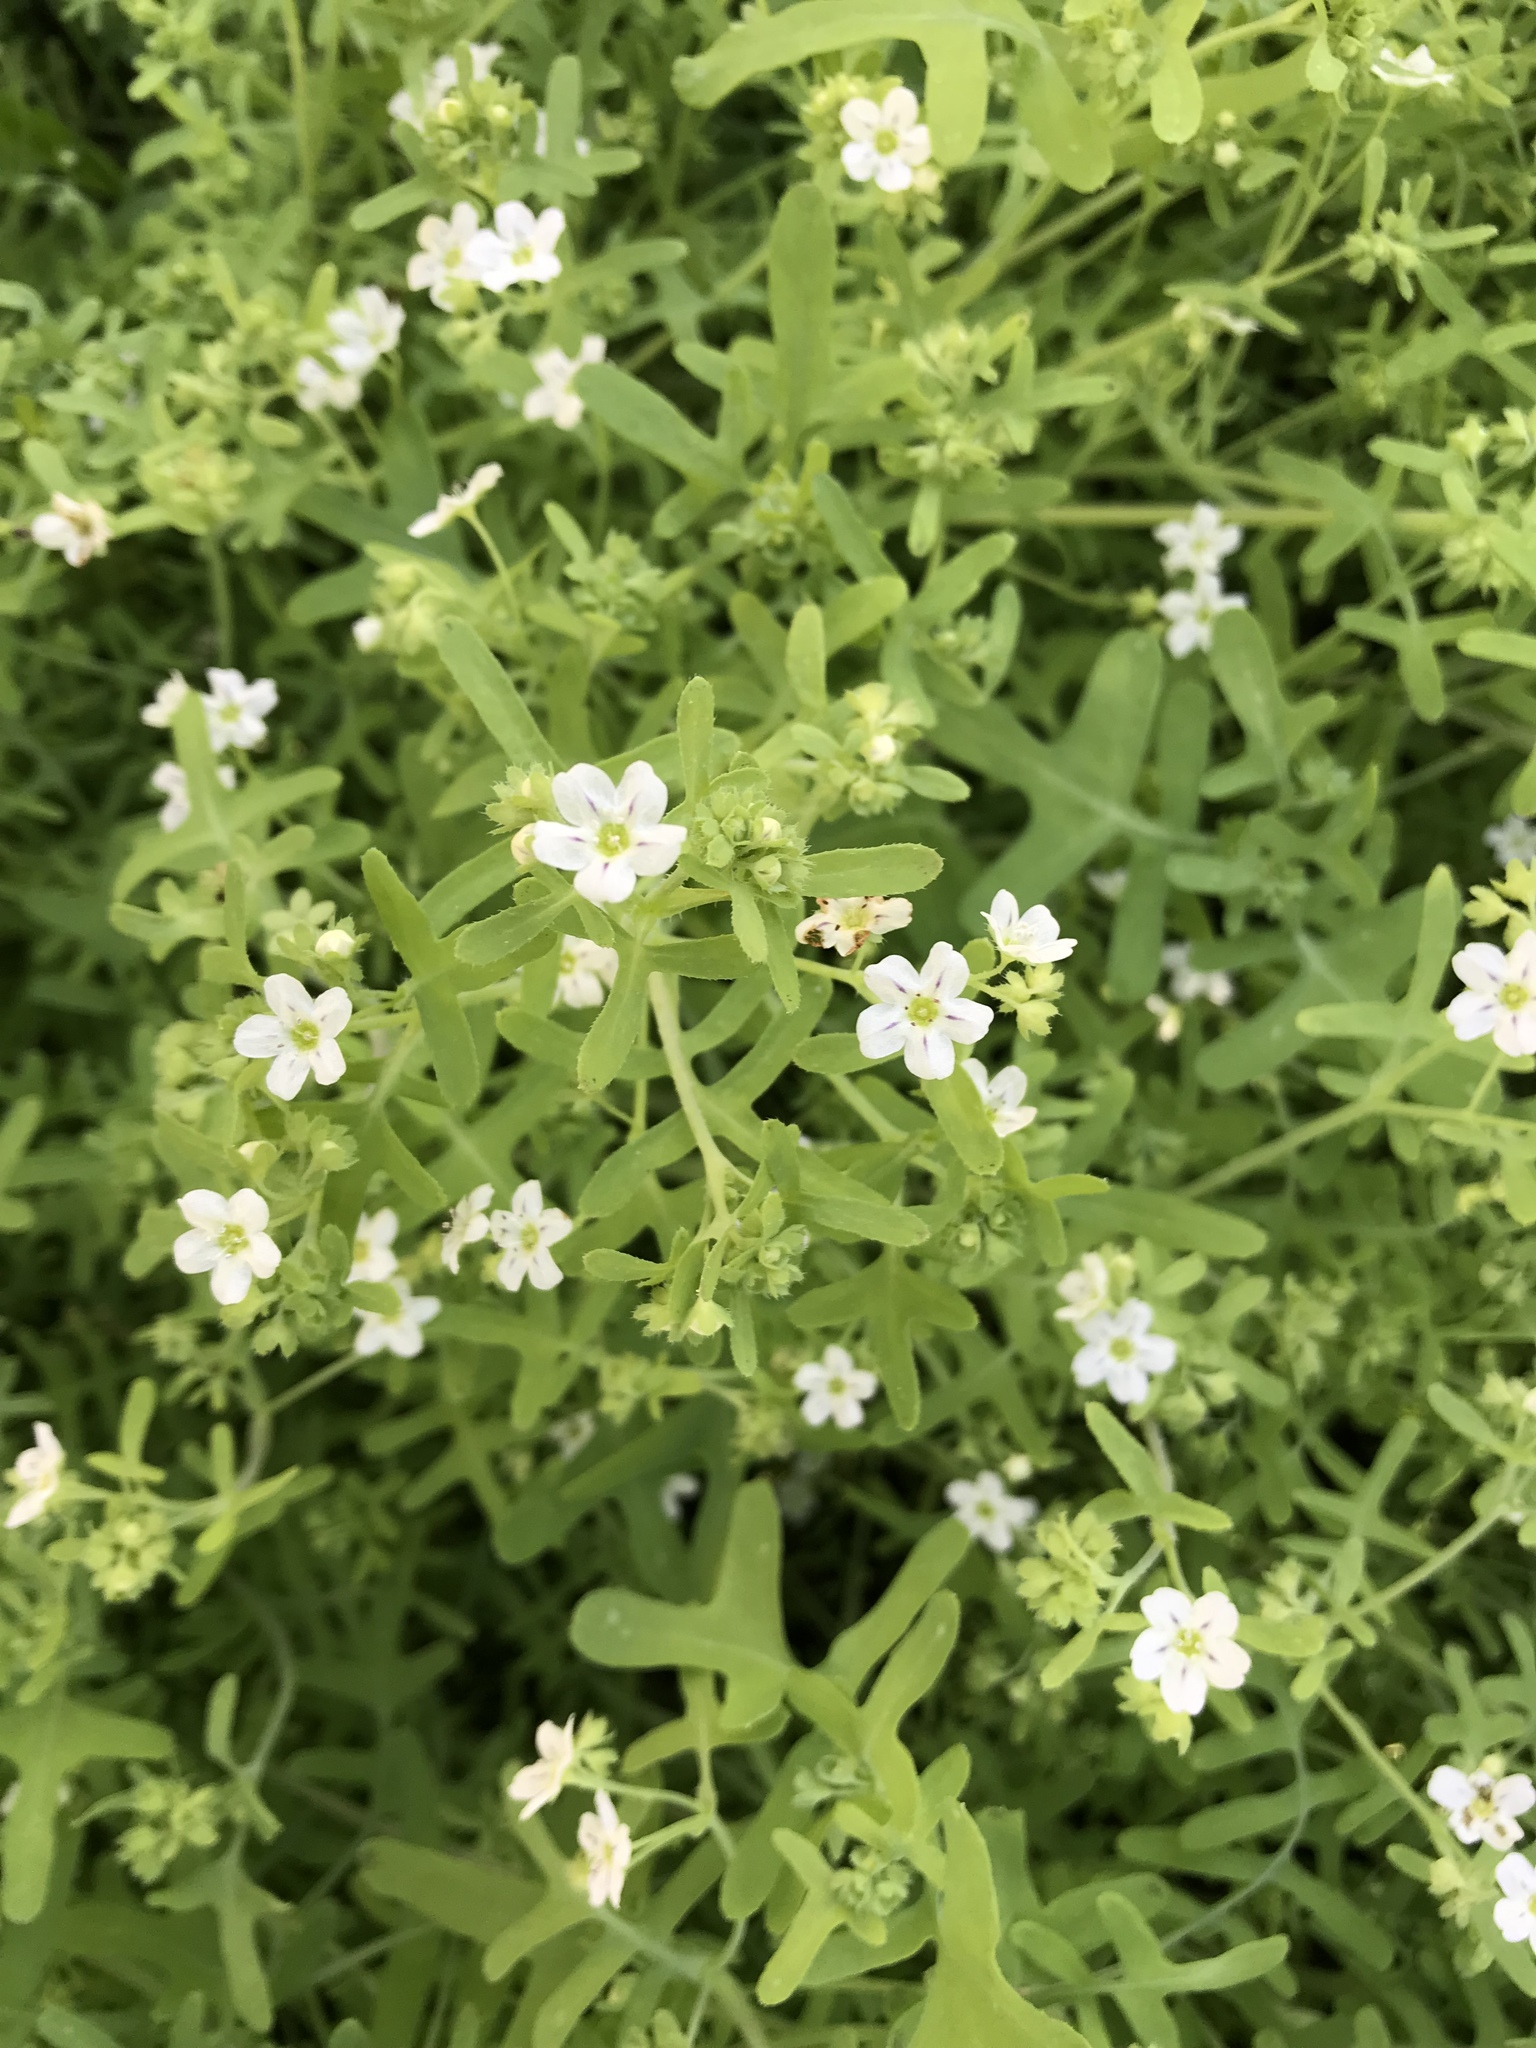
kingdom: Plantae
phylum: Tracheophyta
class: Magnoliopsida
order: Boraginales
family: Hydrophyllaceae
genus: Pholistoma
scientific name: Pholistoma membranaceum
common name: White fiesta-flower
